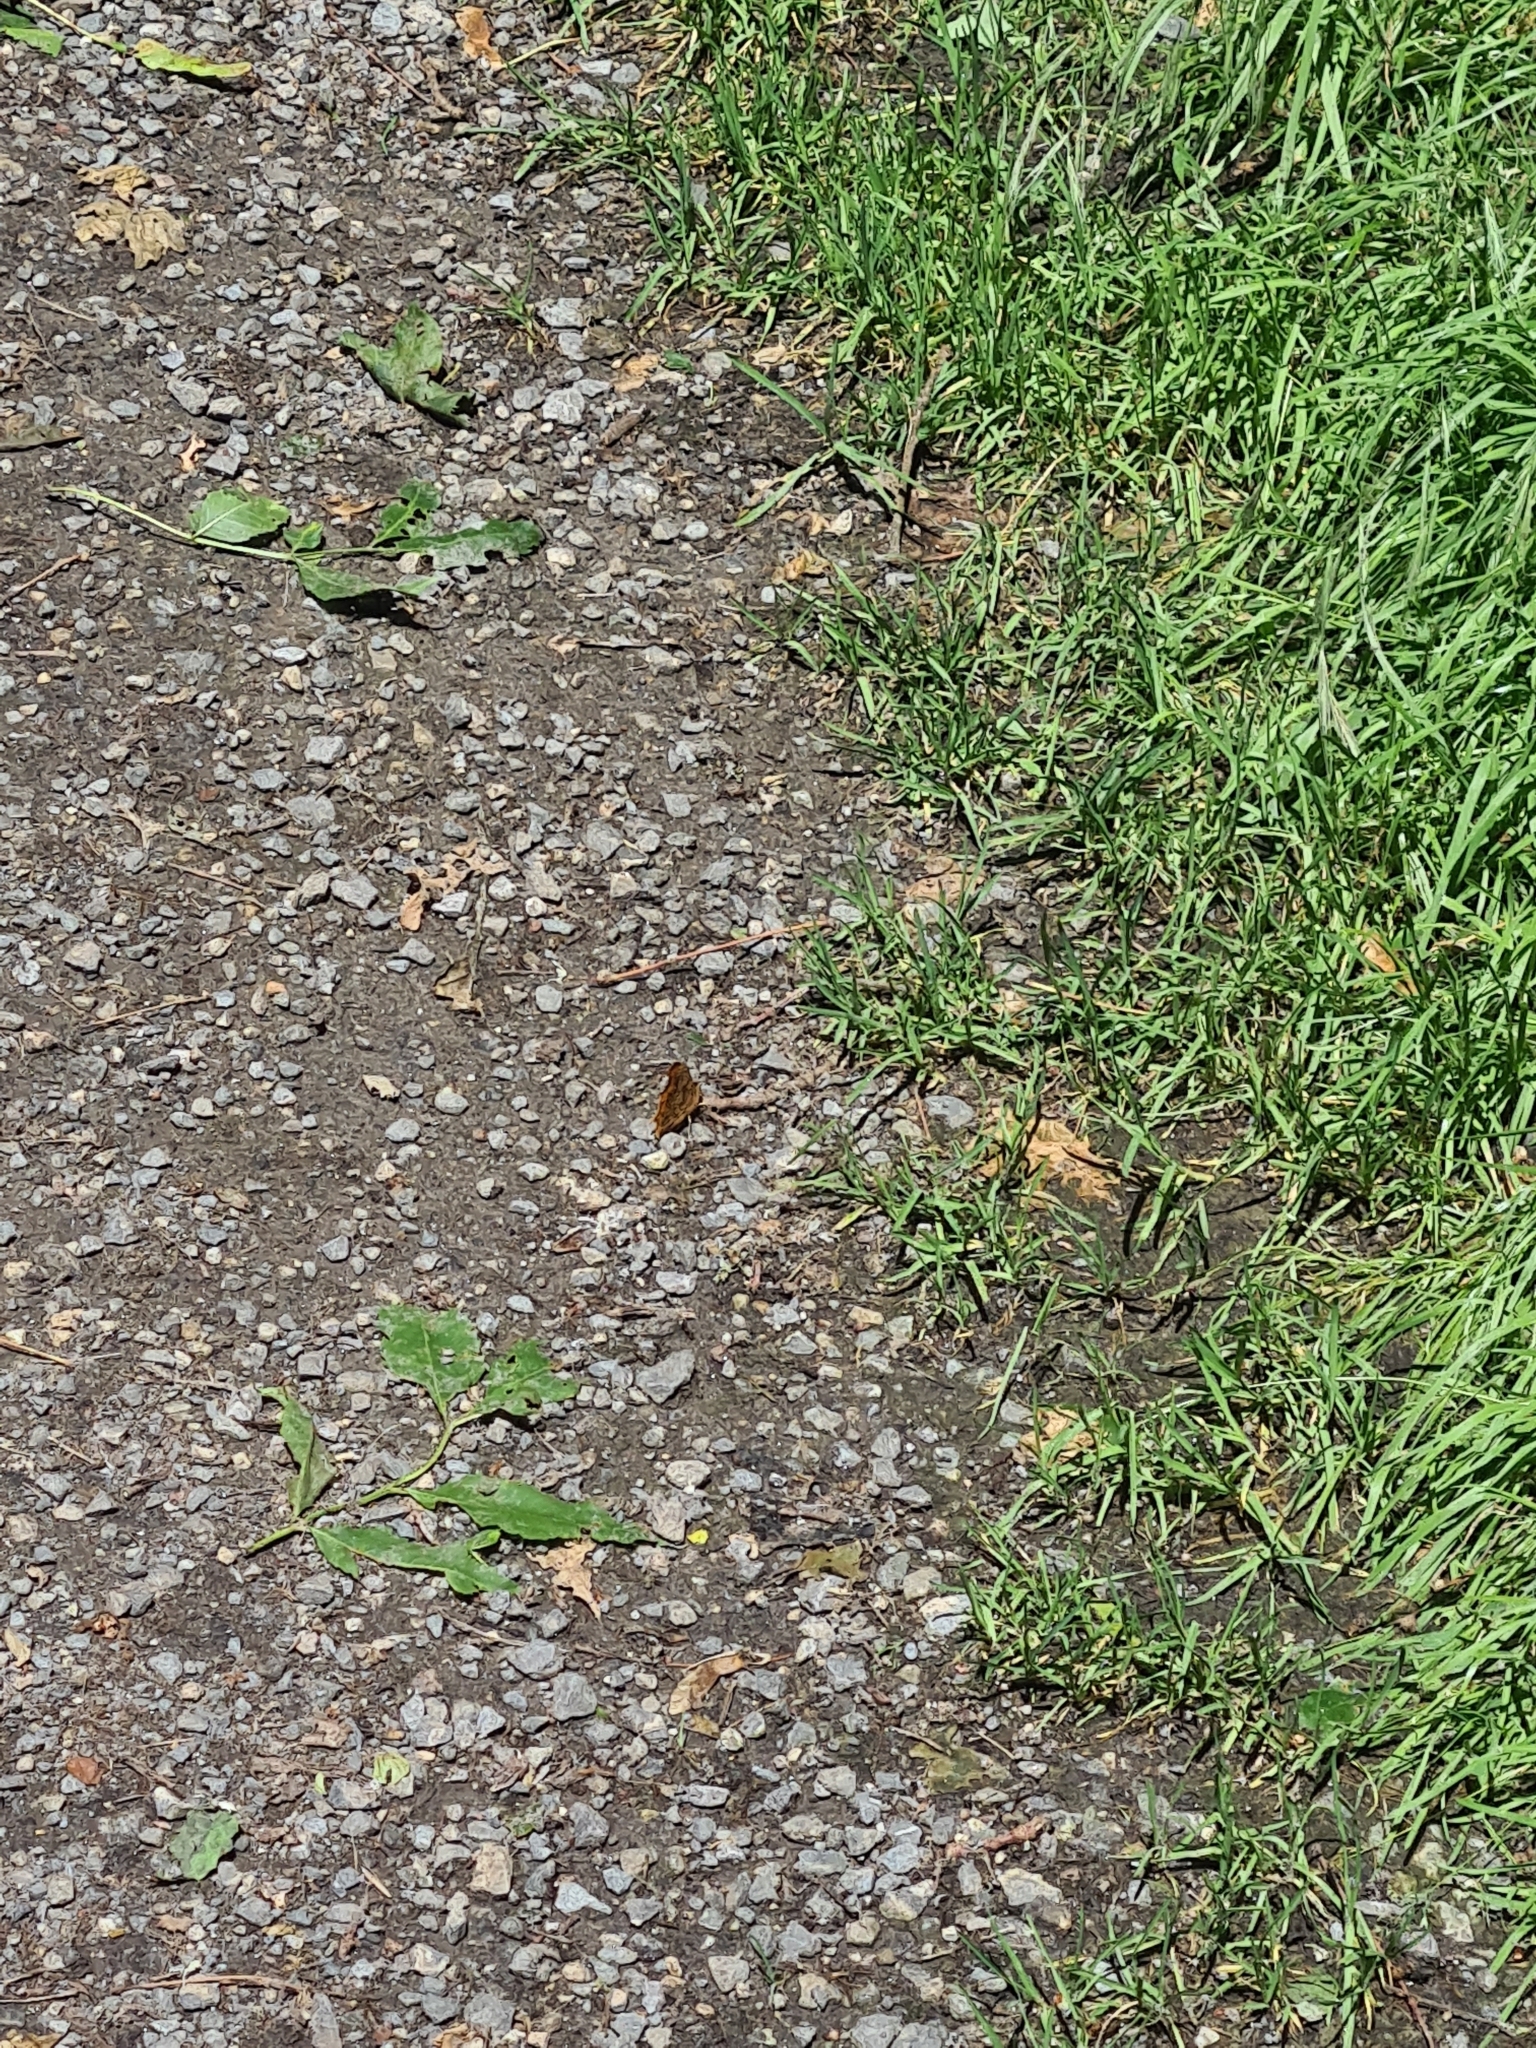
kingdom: Animalia
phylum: Arthropoda
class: Insecta
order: Lepidoptera
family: Nymphalidae
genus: Polygonia
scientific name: Polygonia c-album
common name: Comma
